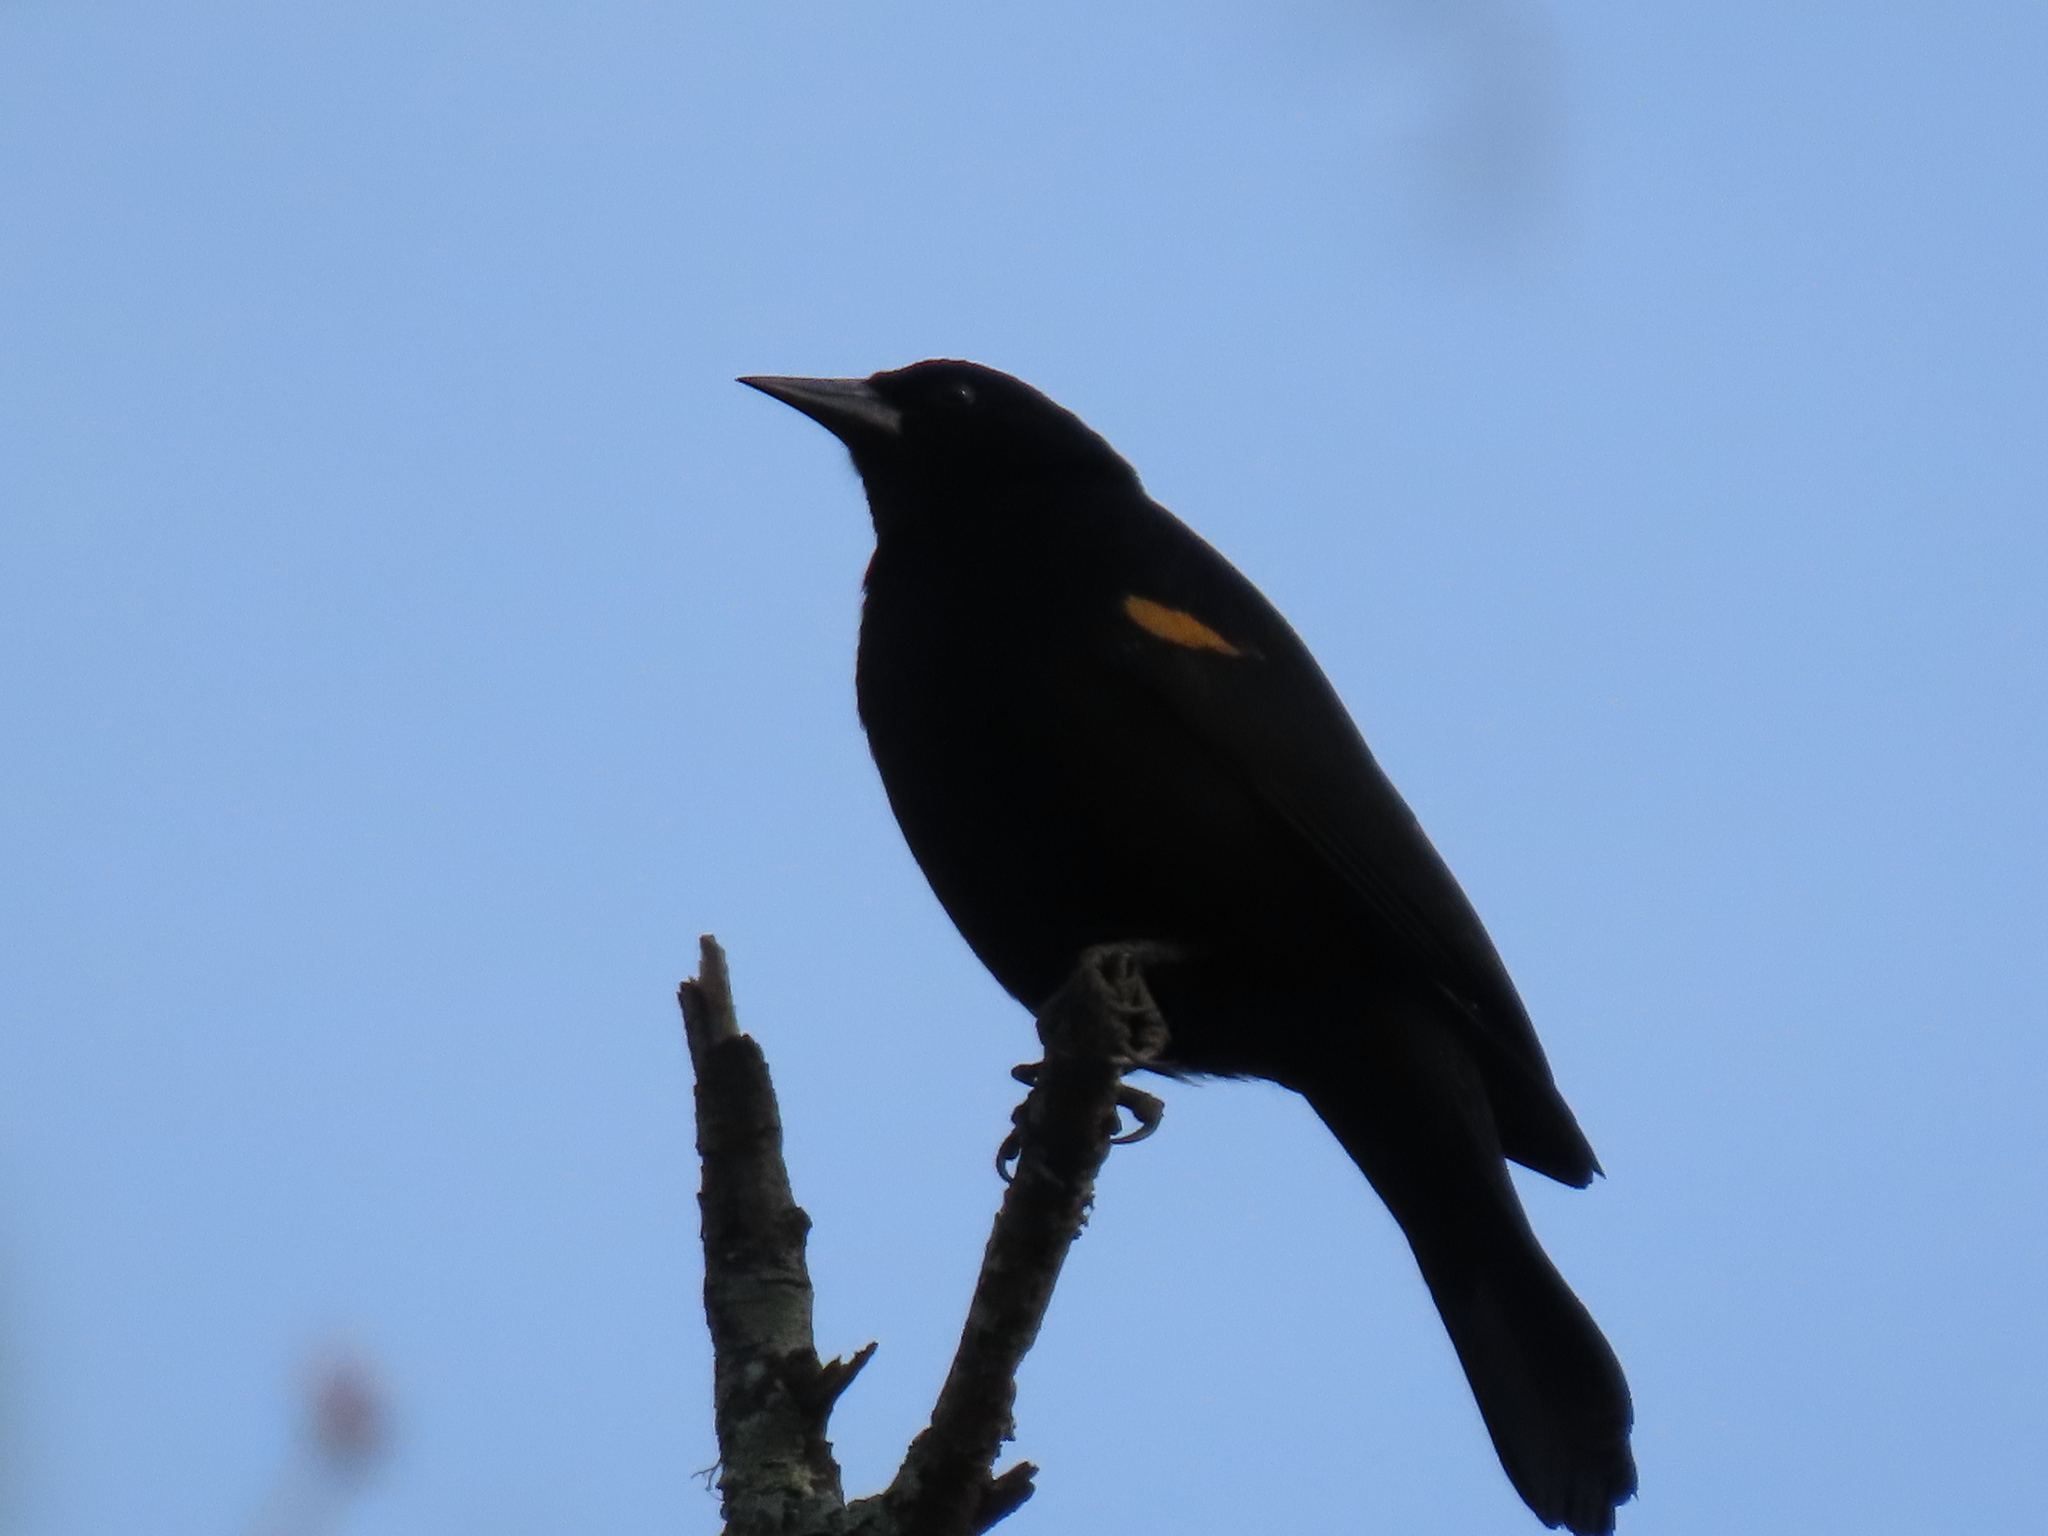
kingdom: Animalia
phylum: Chordata
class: Aves
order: Passeriformes
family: Icteridae
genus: Agelaius
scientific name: Agelaius phoeniceus
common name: Red-winged blackbird
